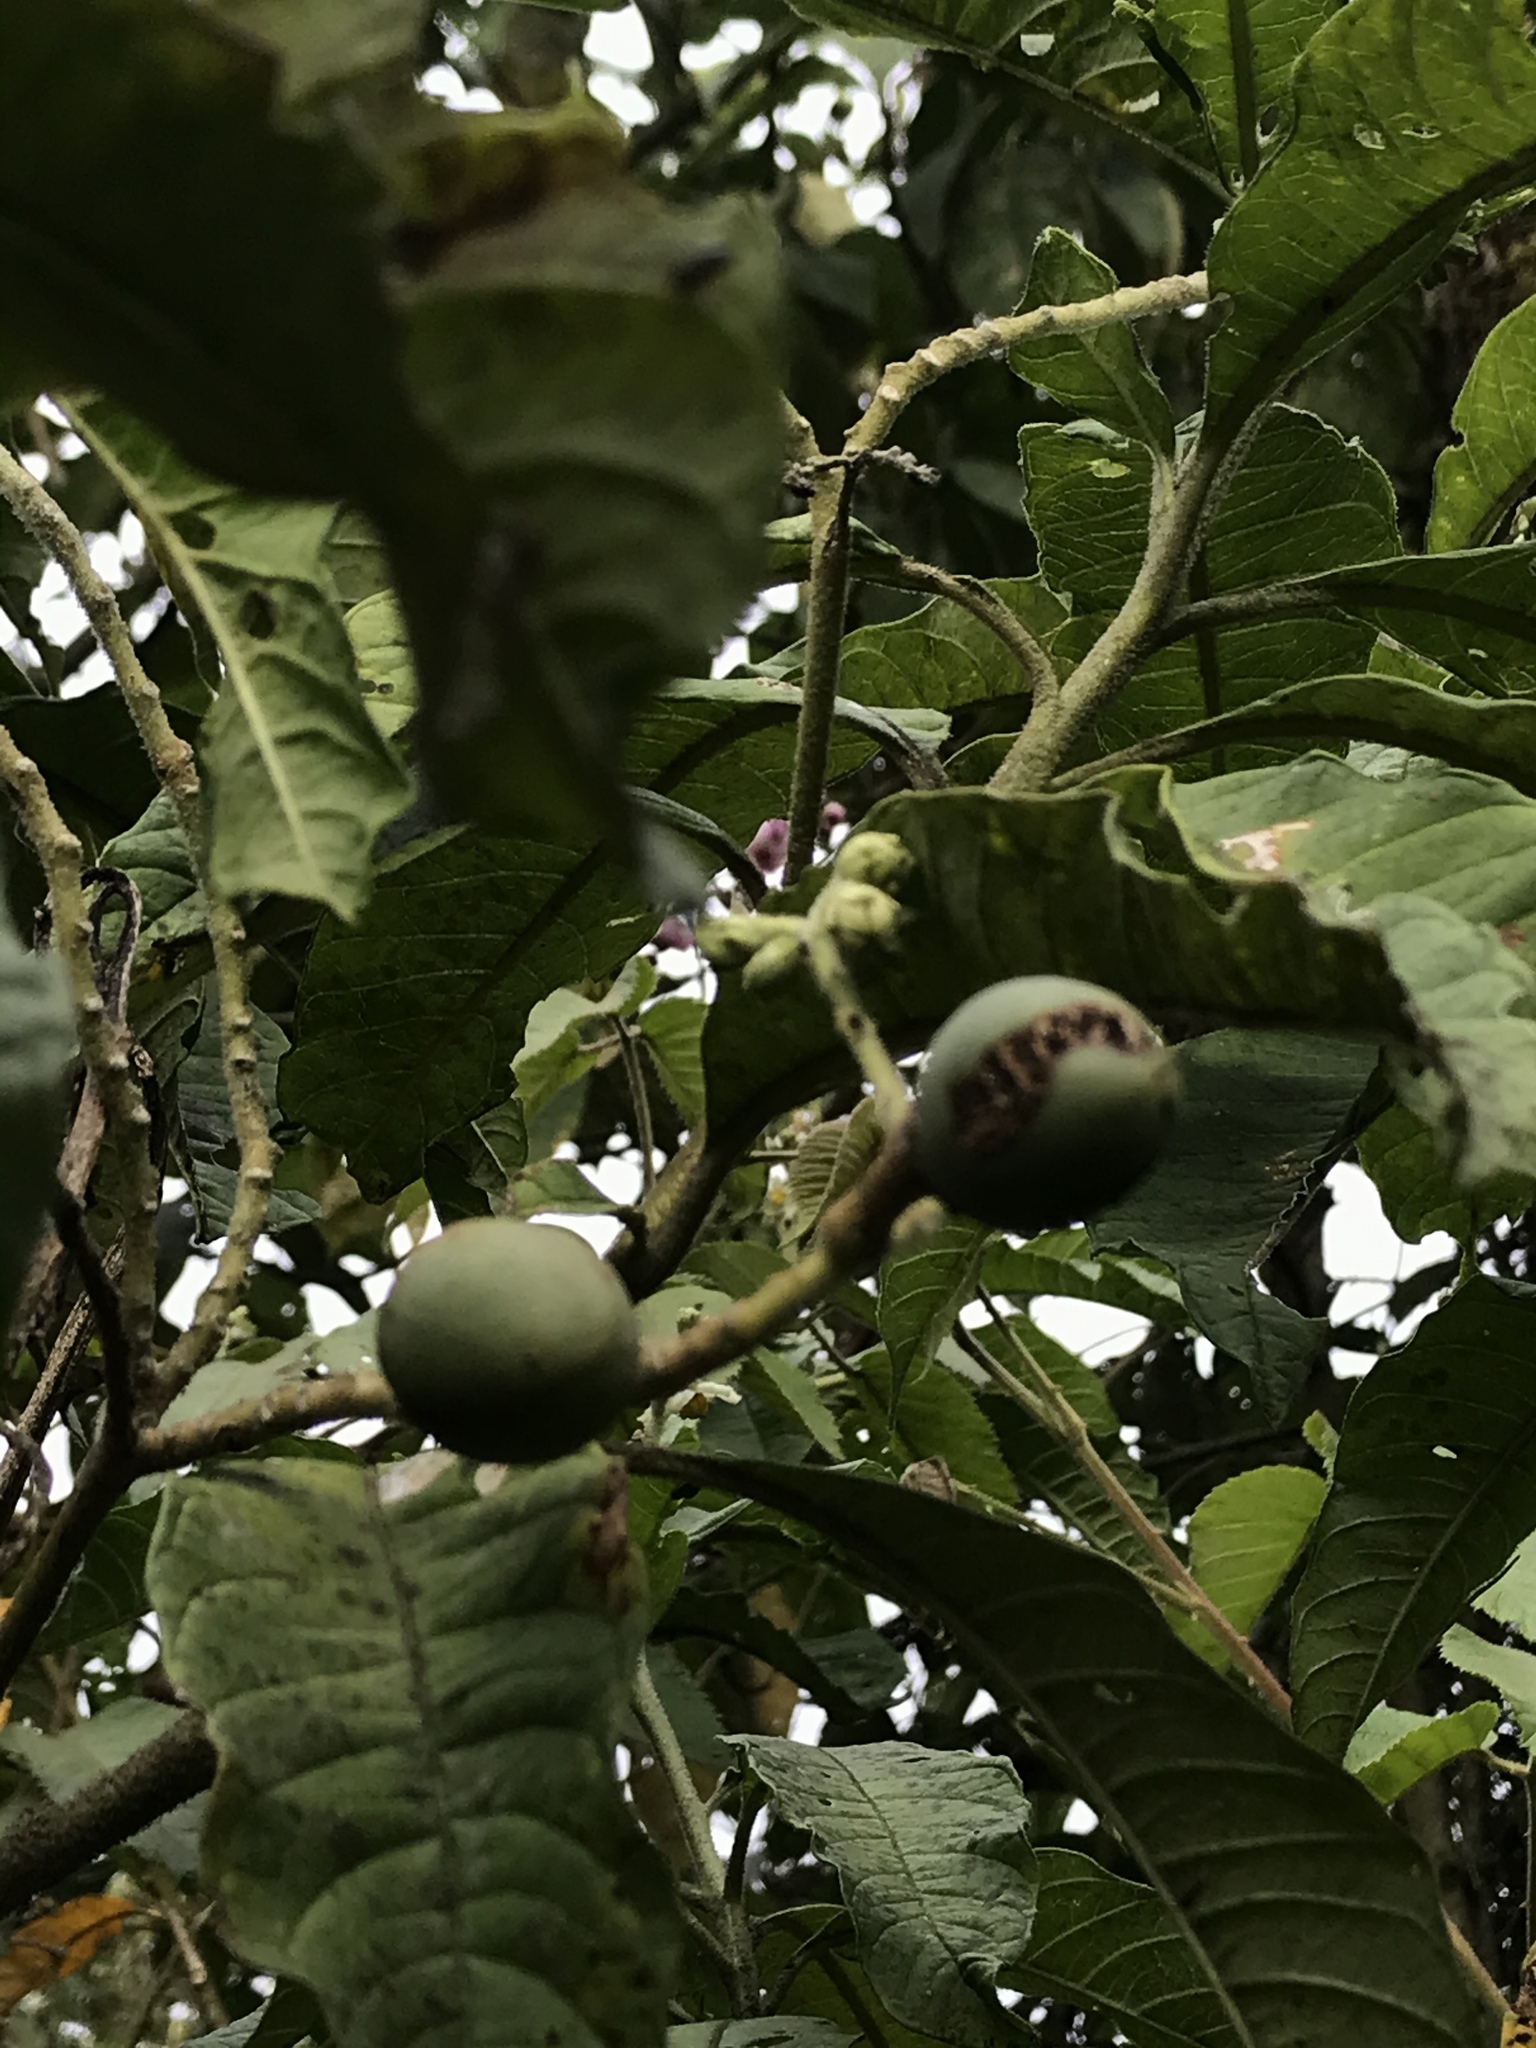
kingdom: Plantae
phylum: Tracheophyta
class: Magnoliopsida
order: Solanales
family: Solanaceae
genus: Solanum
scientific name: Solanum oblongifolium
